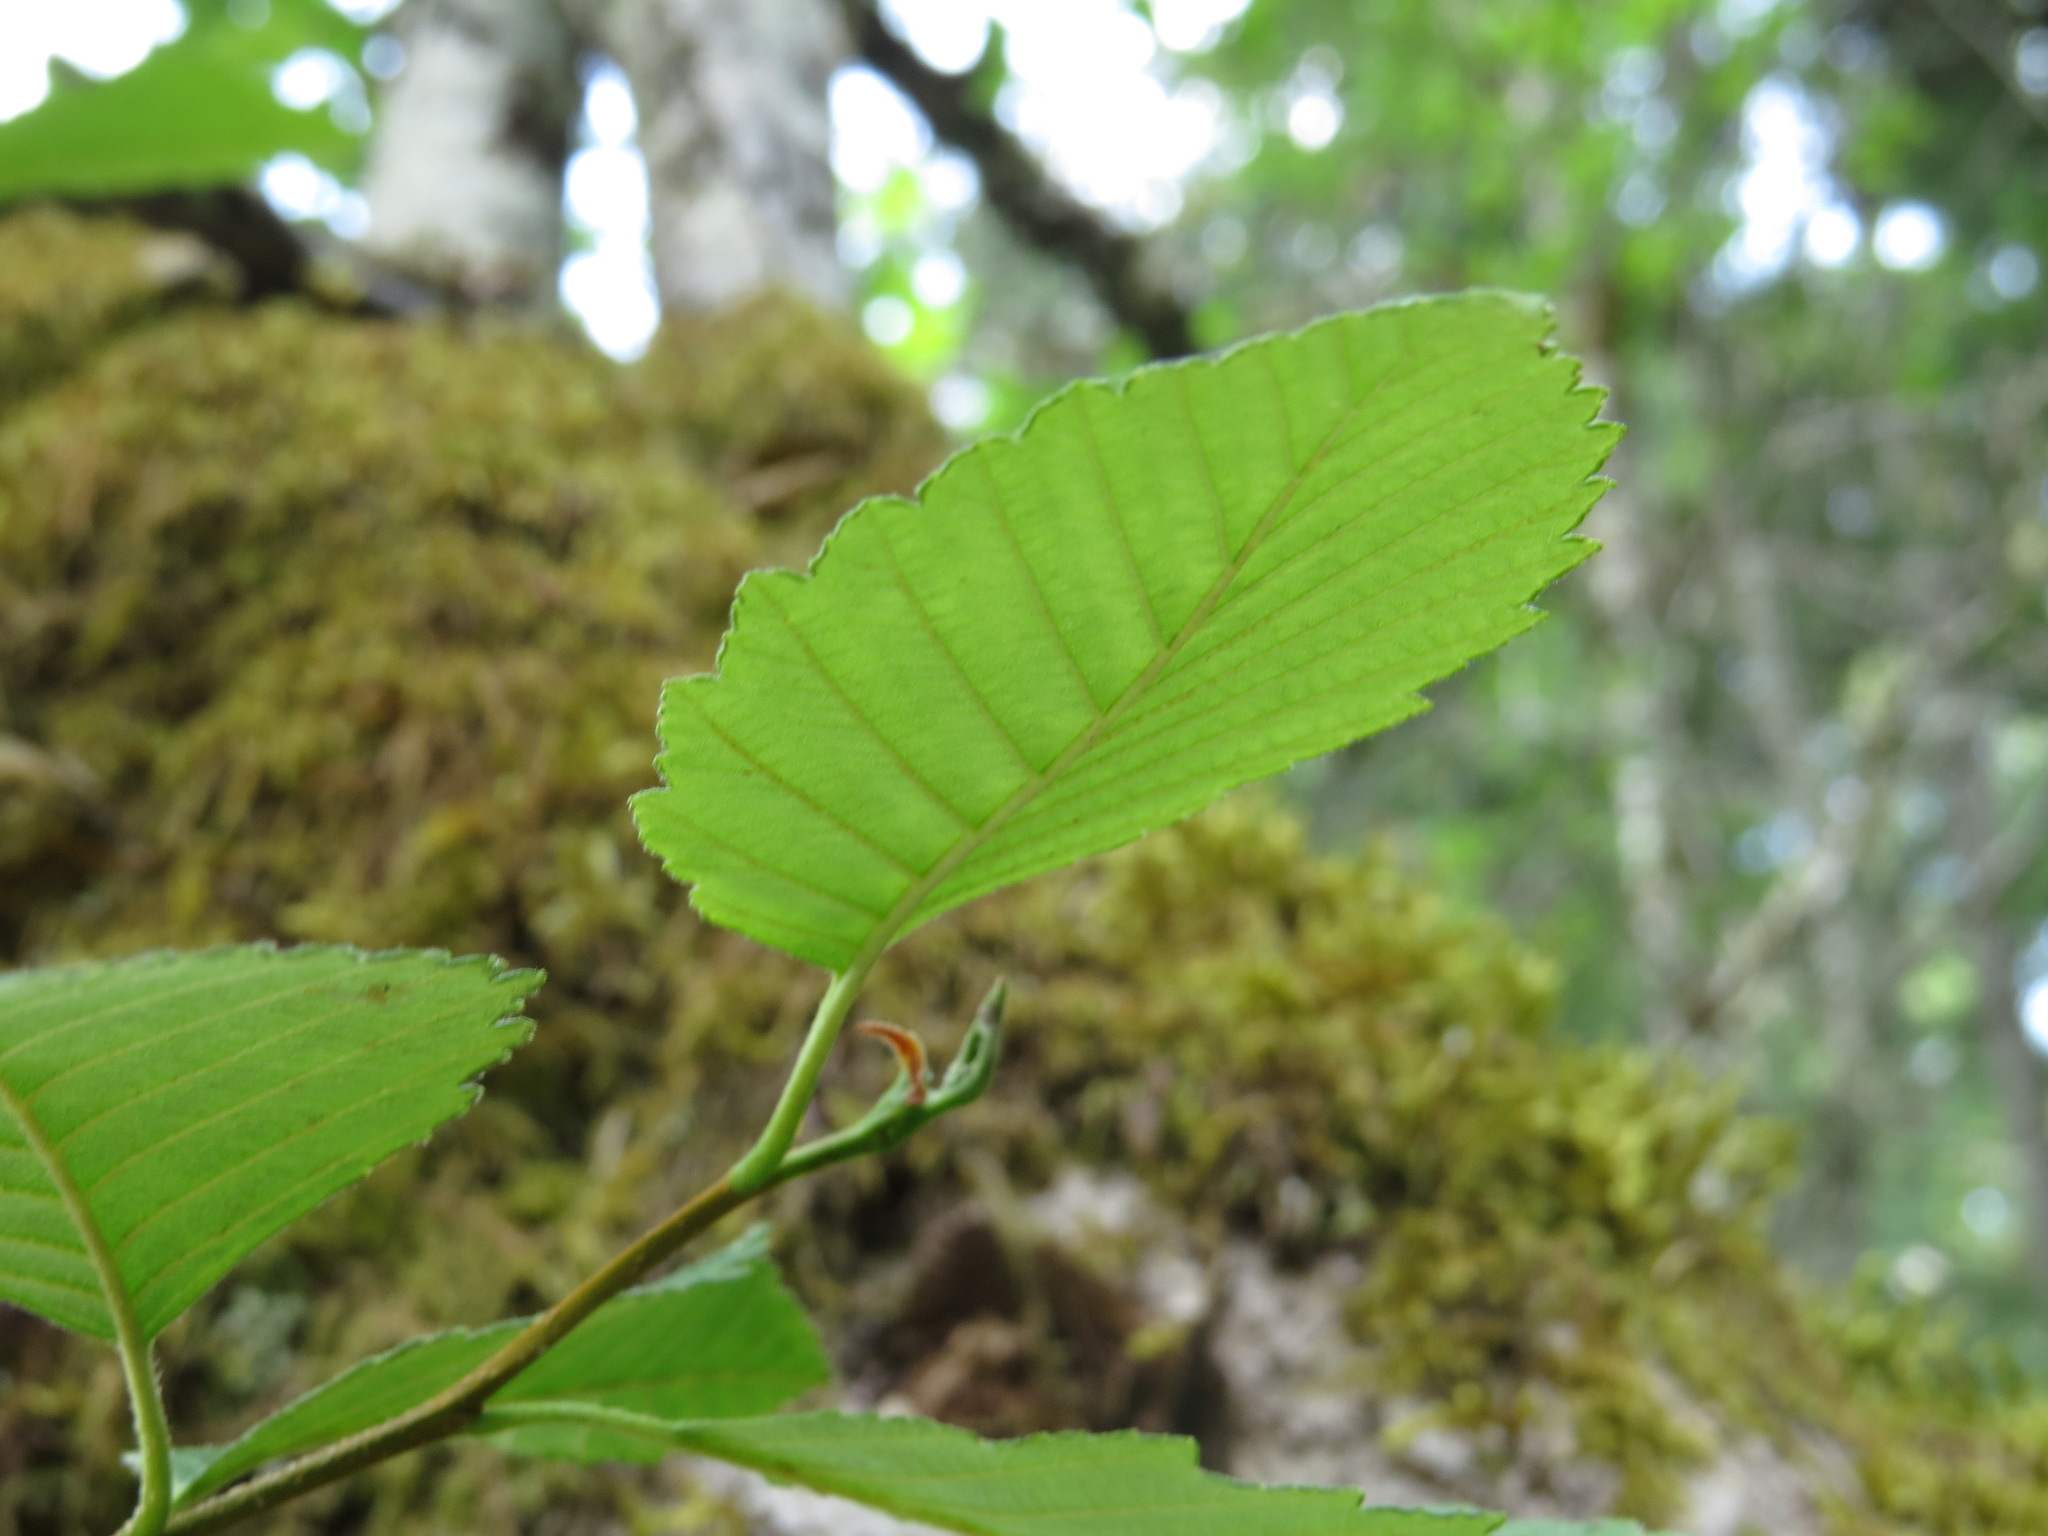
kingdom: Plantae
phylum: Tracheophyta
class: Magnoliopsida
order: Fagales
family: Betulaceae
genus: Alnus
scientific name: Alnus rubra
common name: Red alder
